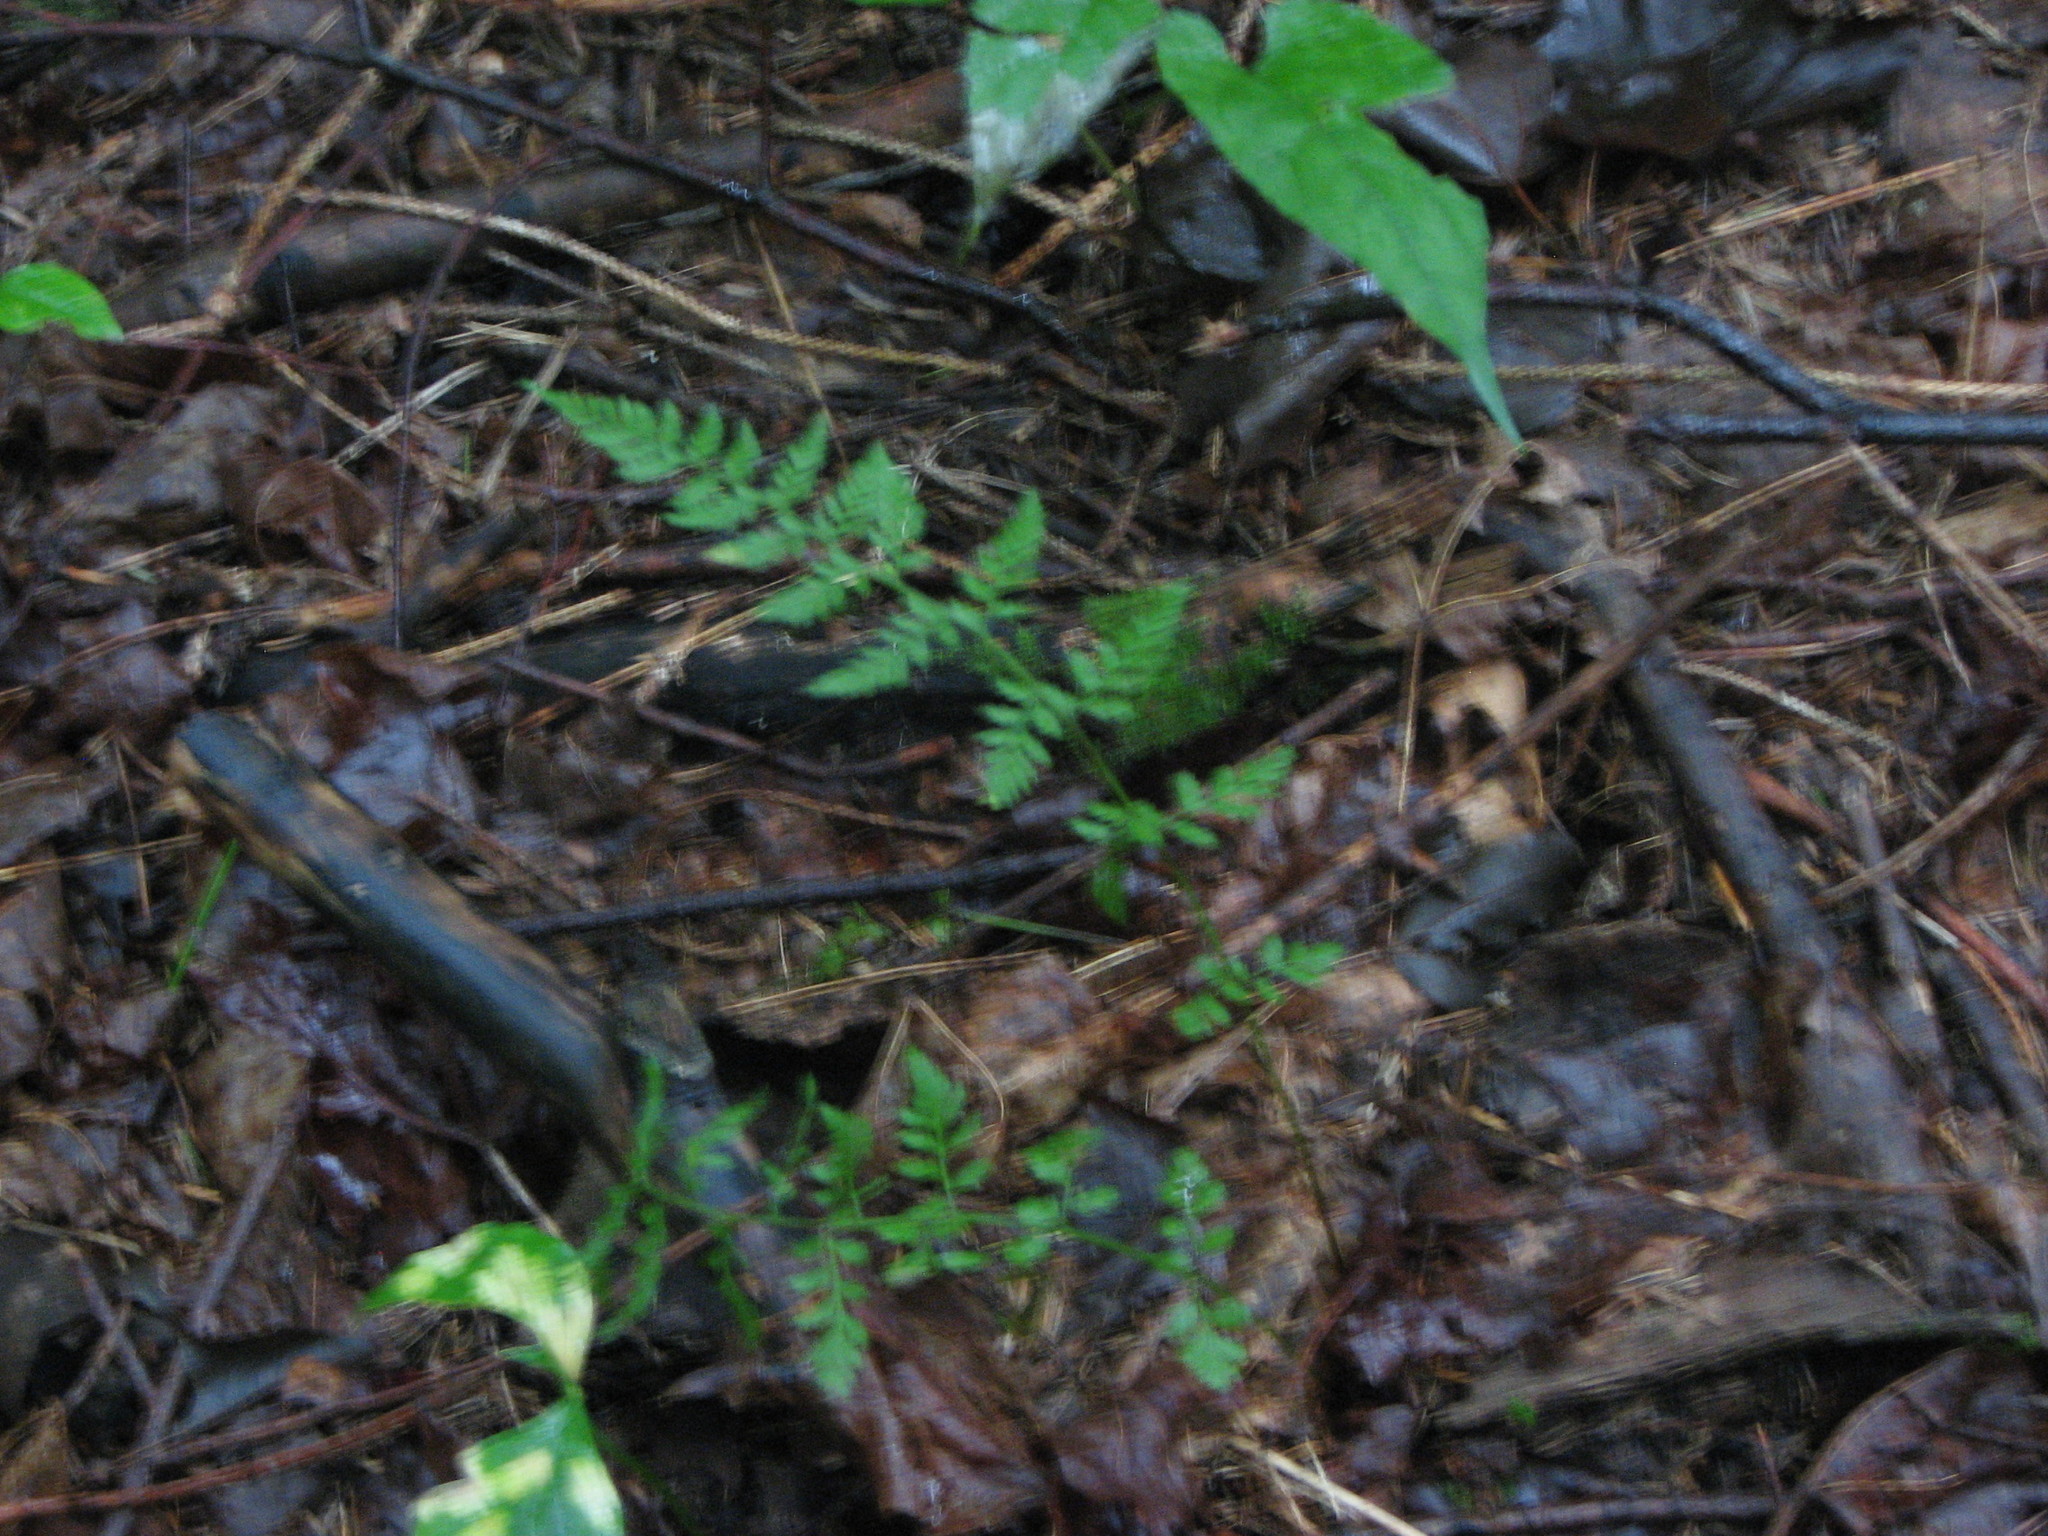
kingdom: Plantae
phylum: Tracheophyta
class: Polypodiopsida
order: Polypodiales
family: Cystopteridaceae
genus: Cystopteris
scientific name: Cystopteris tenuis
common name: Mackay's brittle fern
